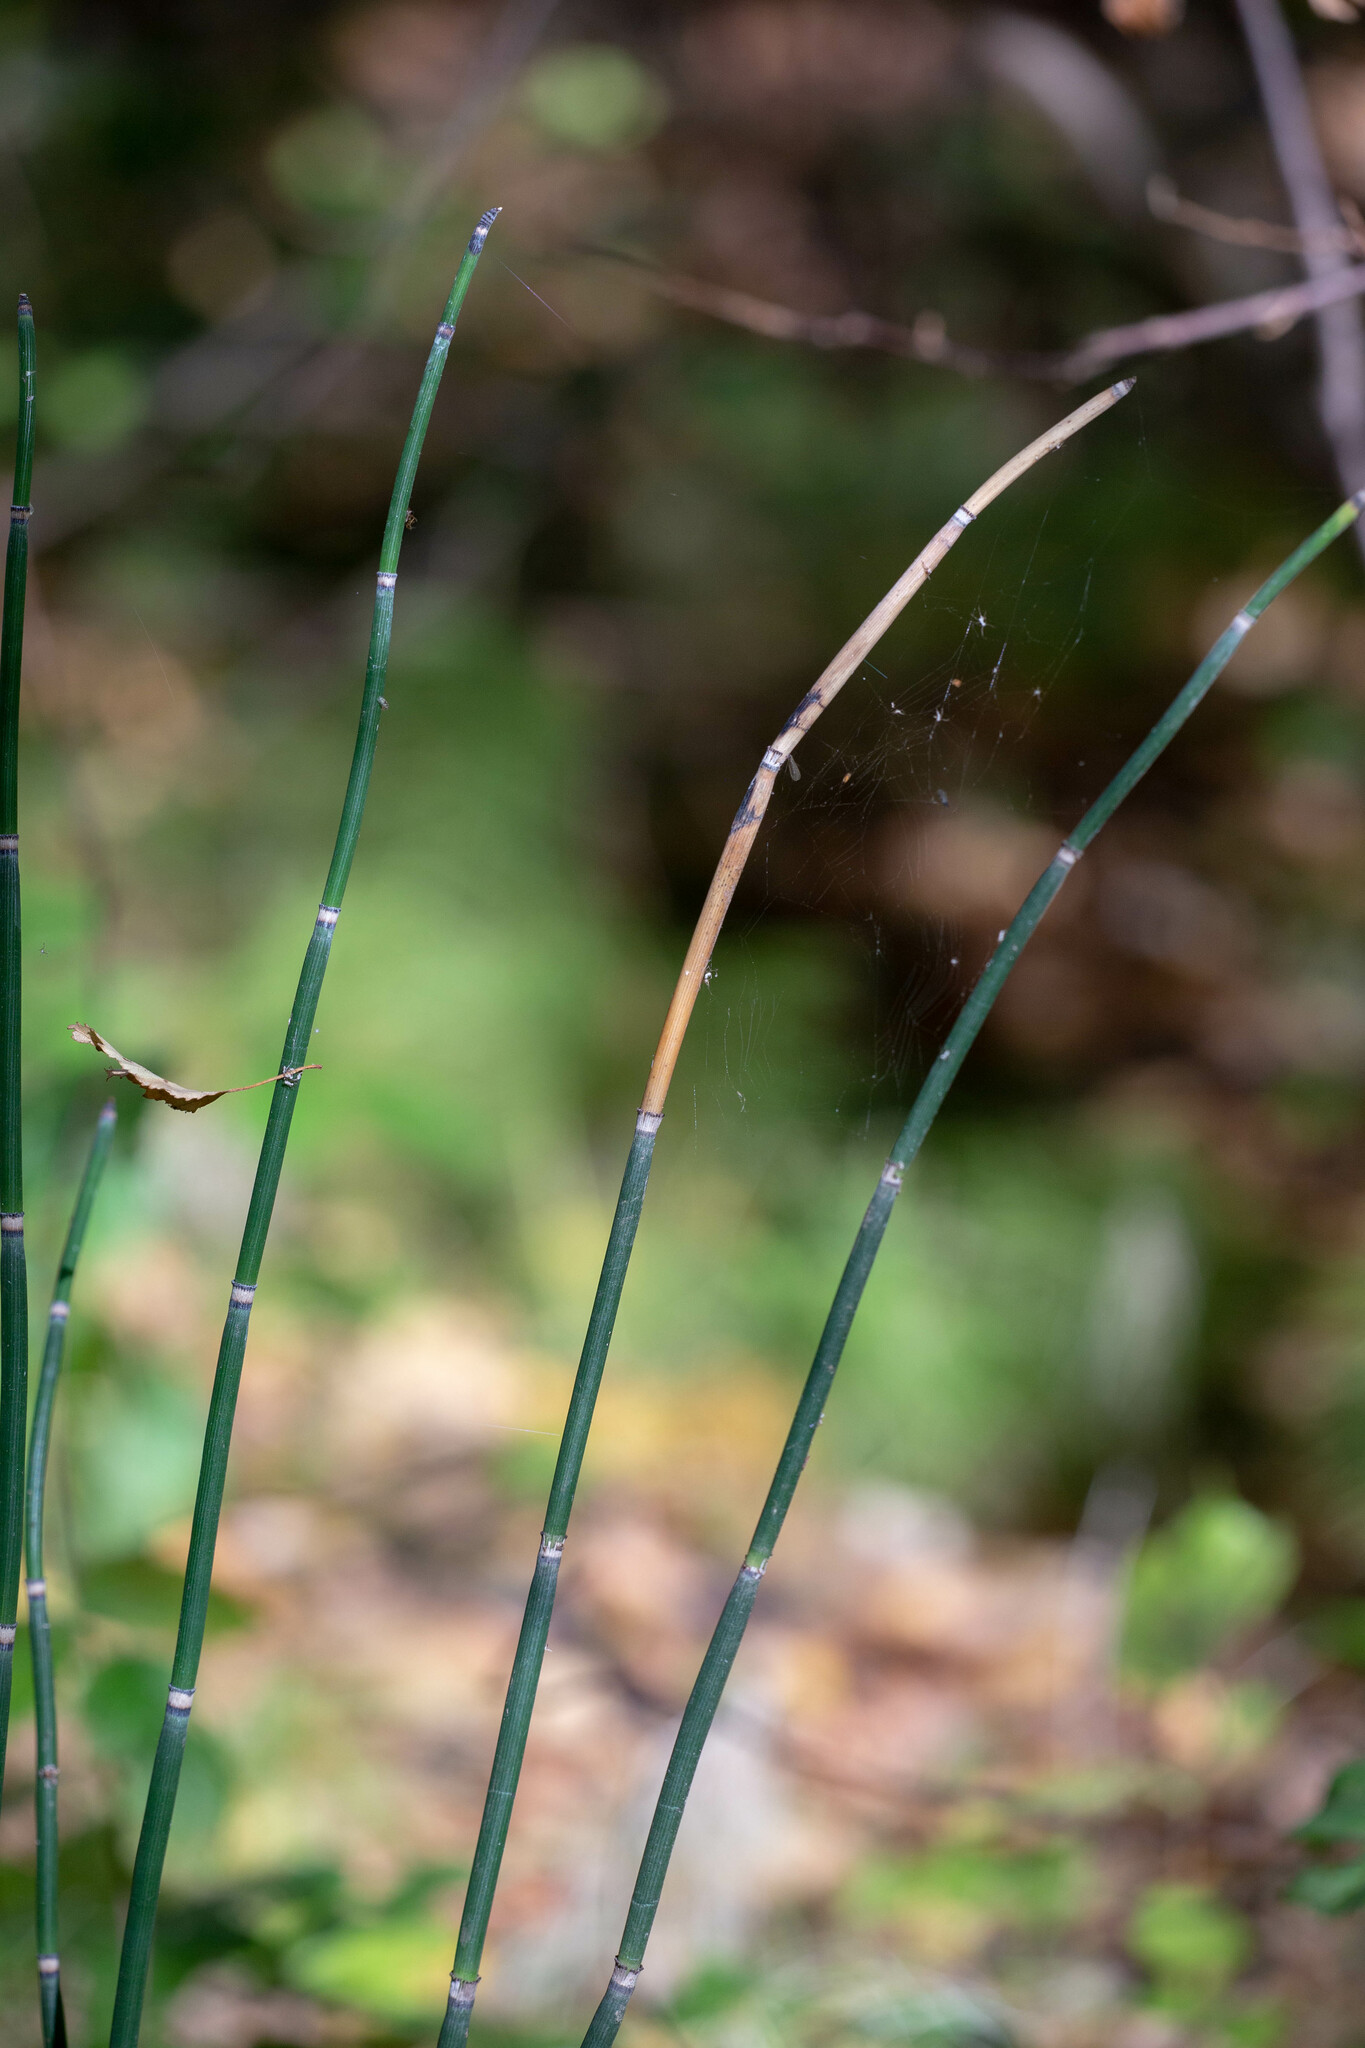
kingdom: Plantae
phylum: Tracheophyta
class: Polypodiopsida
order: Equisetales
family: Equisetaceae
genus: Equisetum
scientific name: Equisetum hyemale
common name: Rough horsetail
